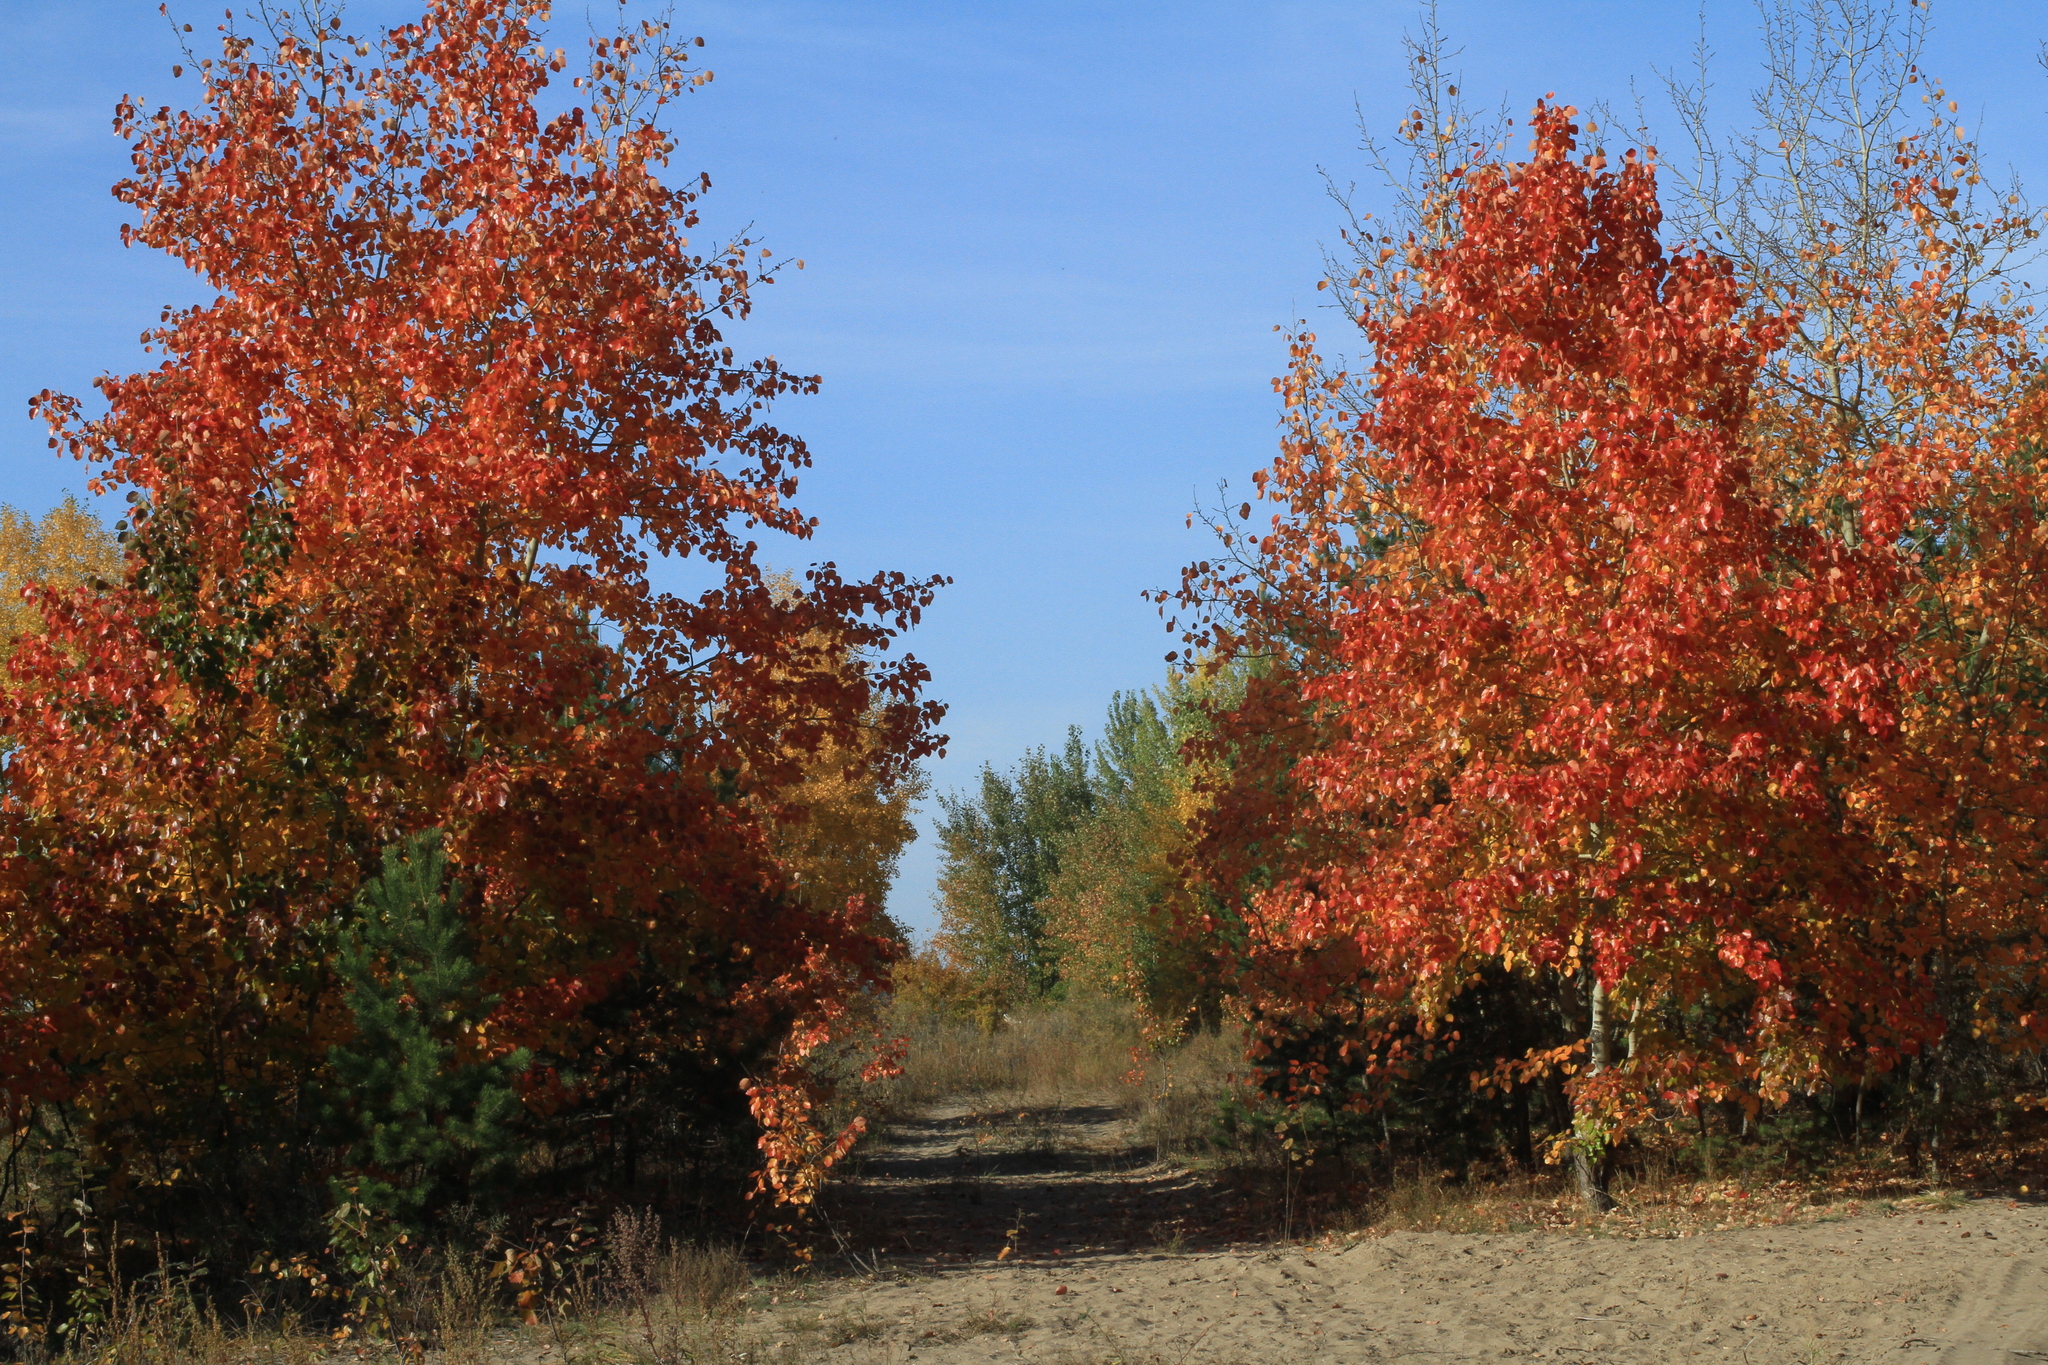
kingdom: Plantae
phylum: Tracheophyta
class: Magnoliopsida
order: Malpighiales
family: Salicaceae
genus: Populus
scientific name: Populus tremula
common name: European aspen
